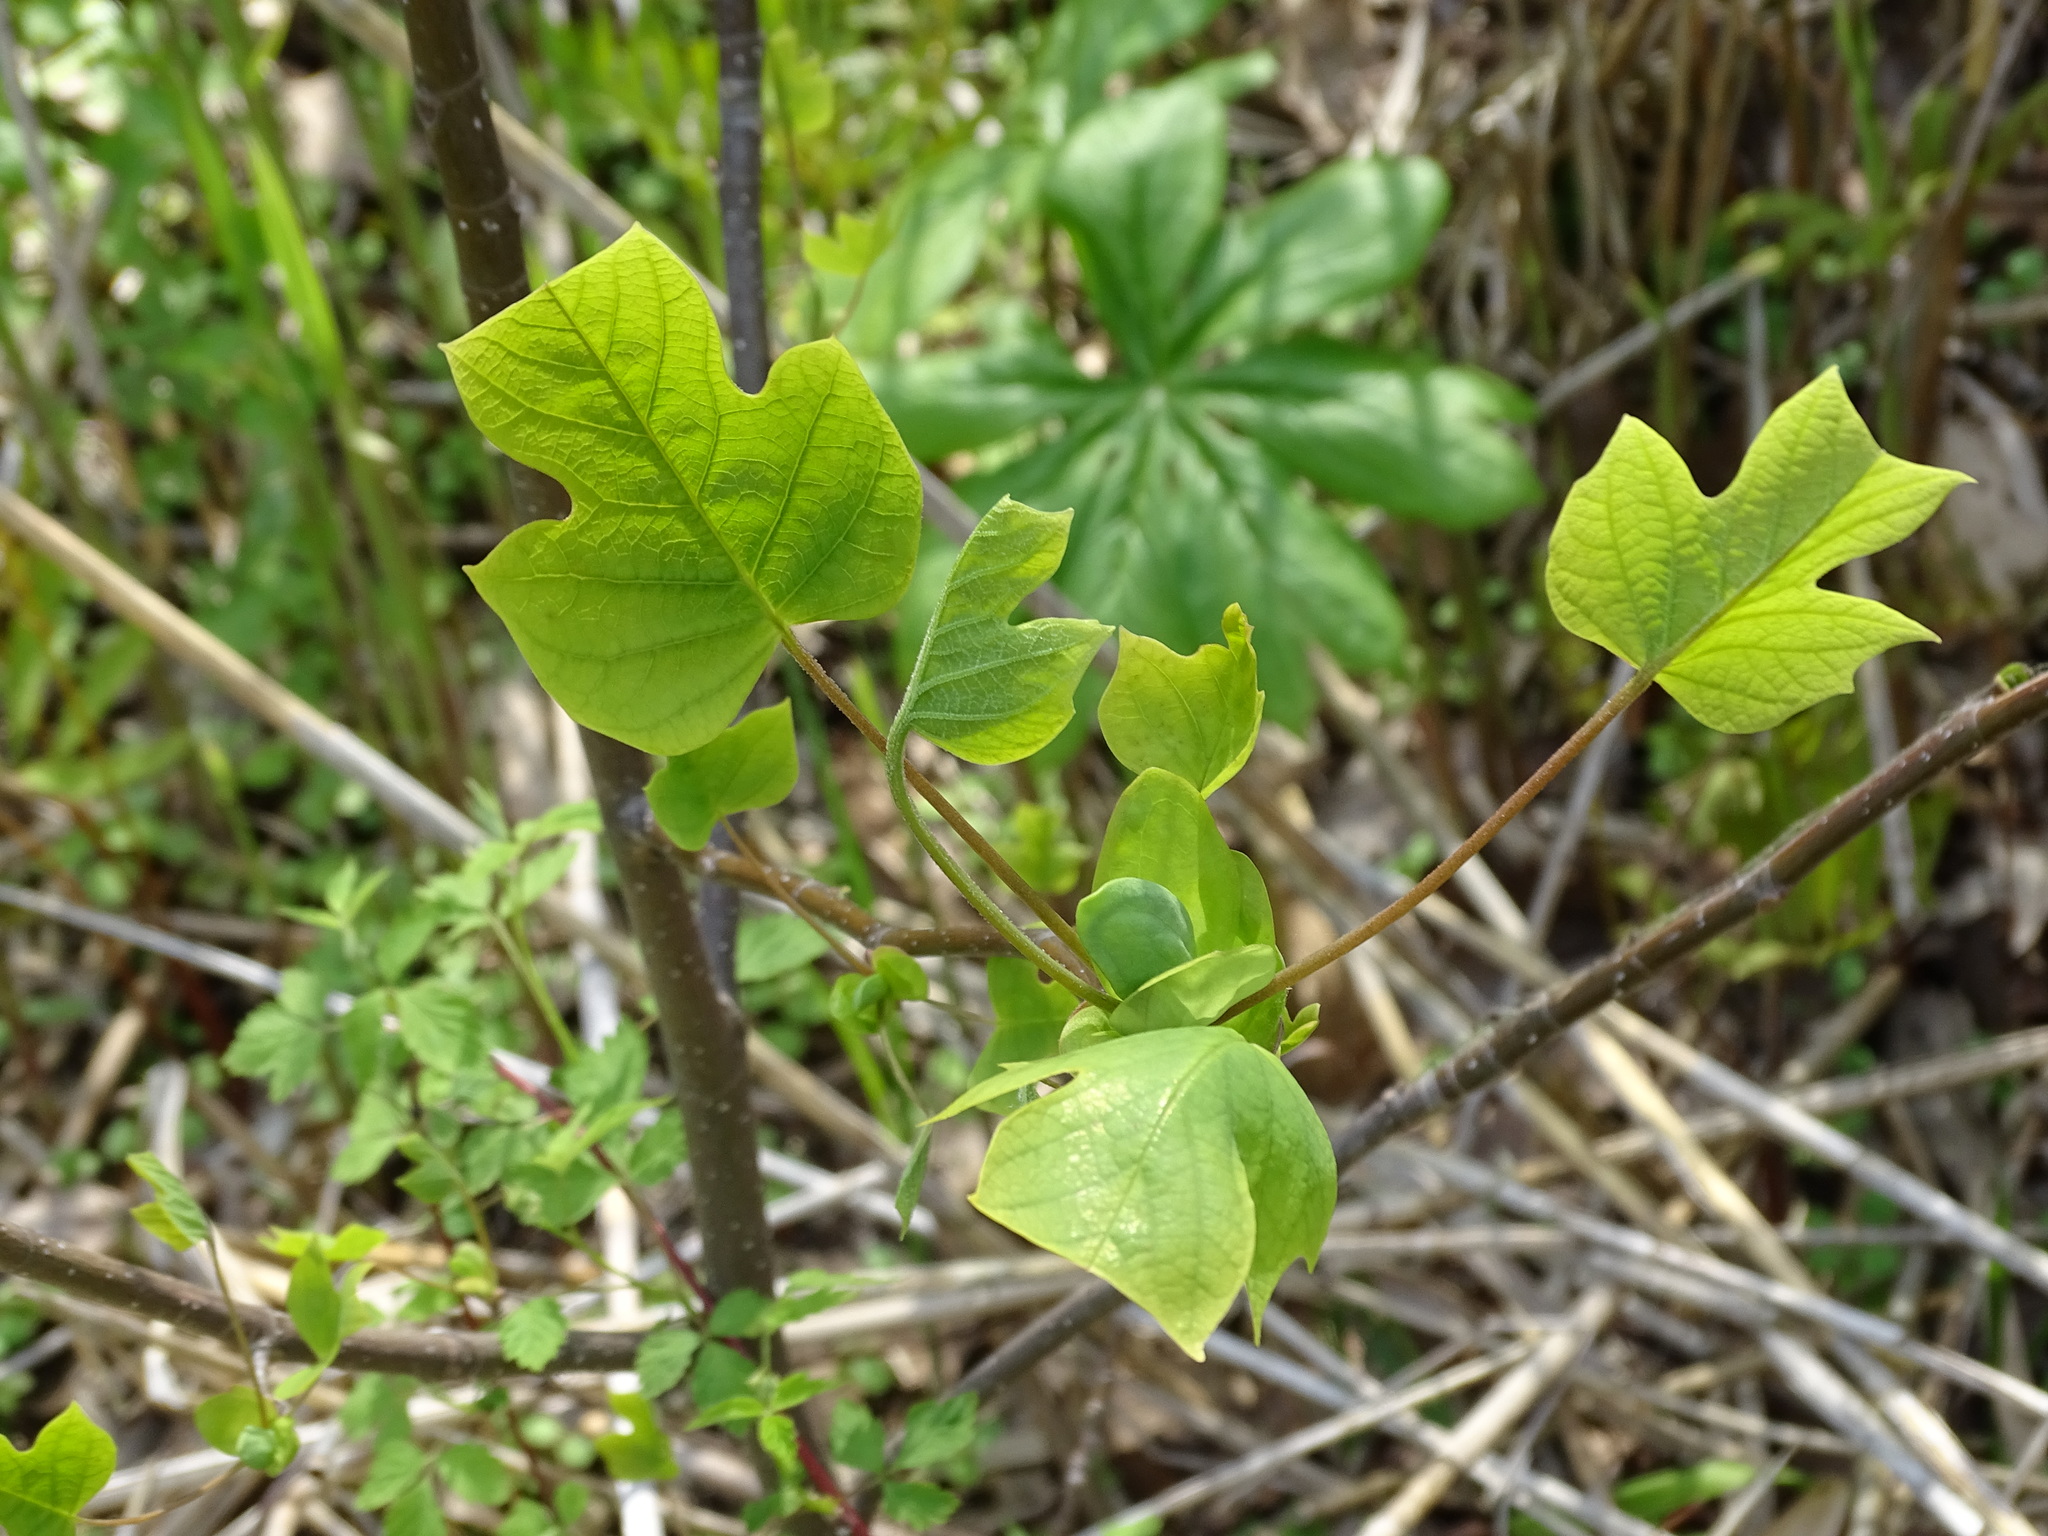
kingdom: Plantae
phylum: Tracheophyta
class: Magnoliopsida
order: Magnoliales
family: Magnoliaceae
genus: Liriodendron
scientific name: Liriodendron tulipifera
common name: Tulip tree
